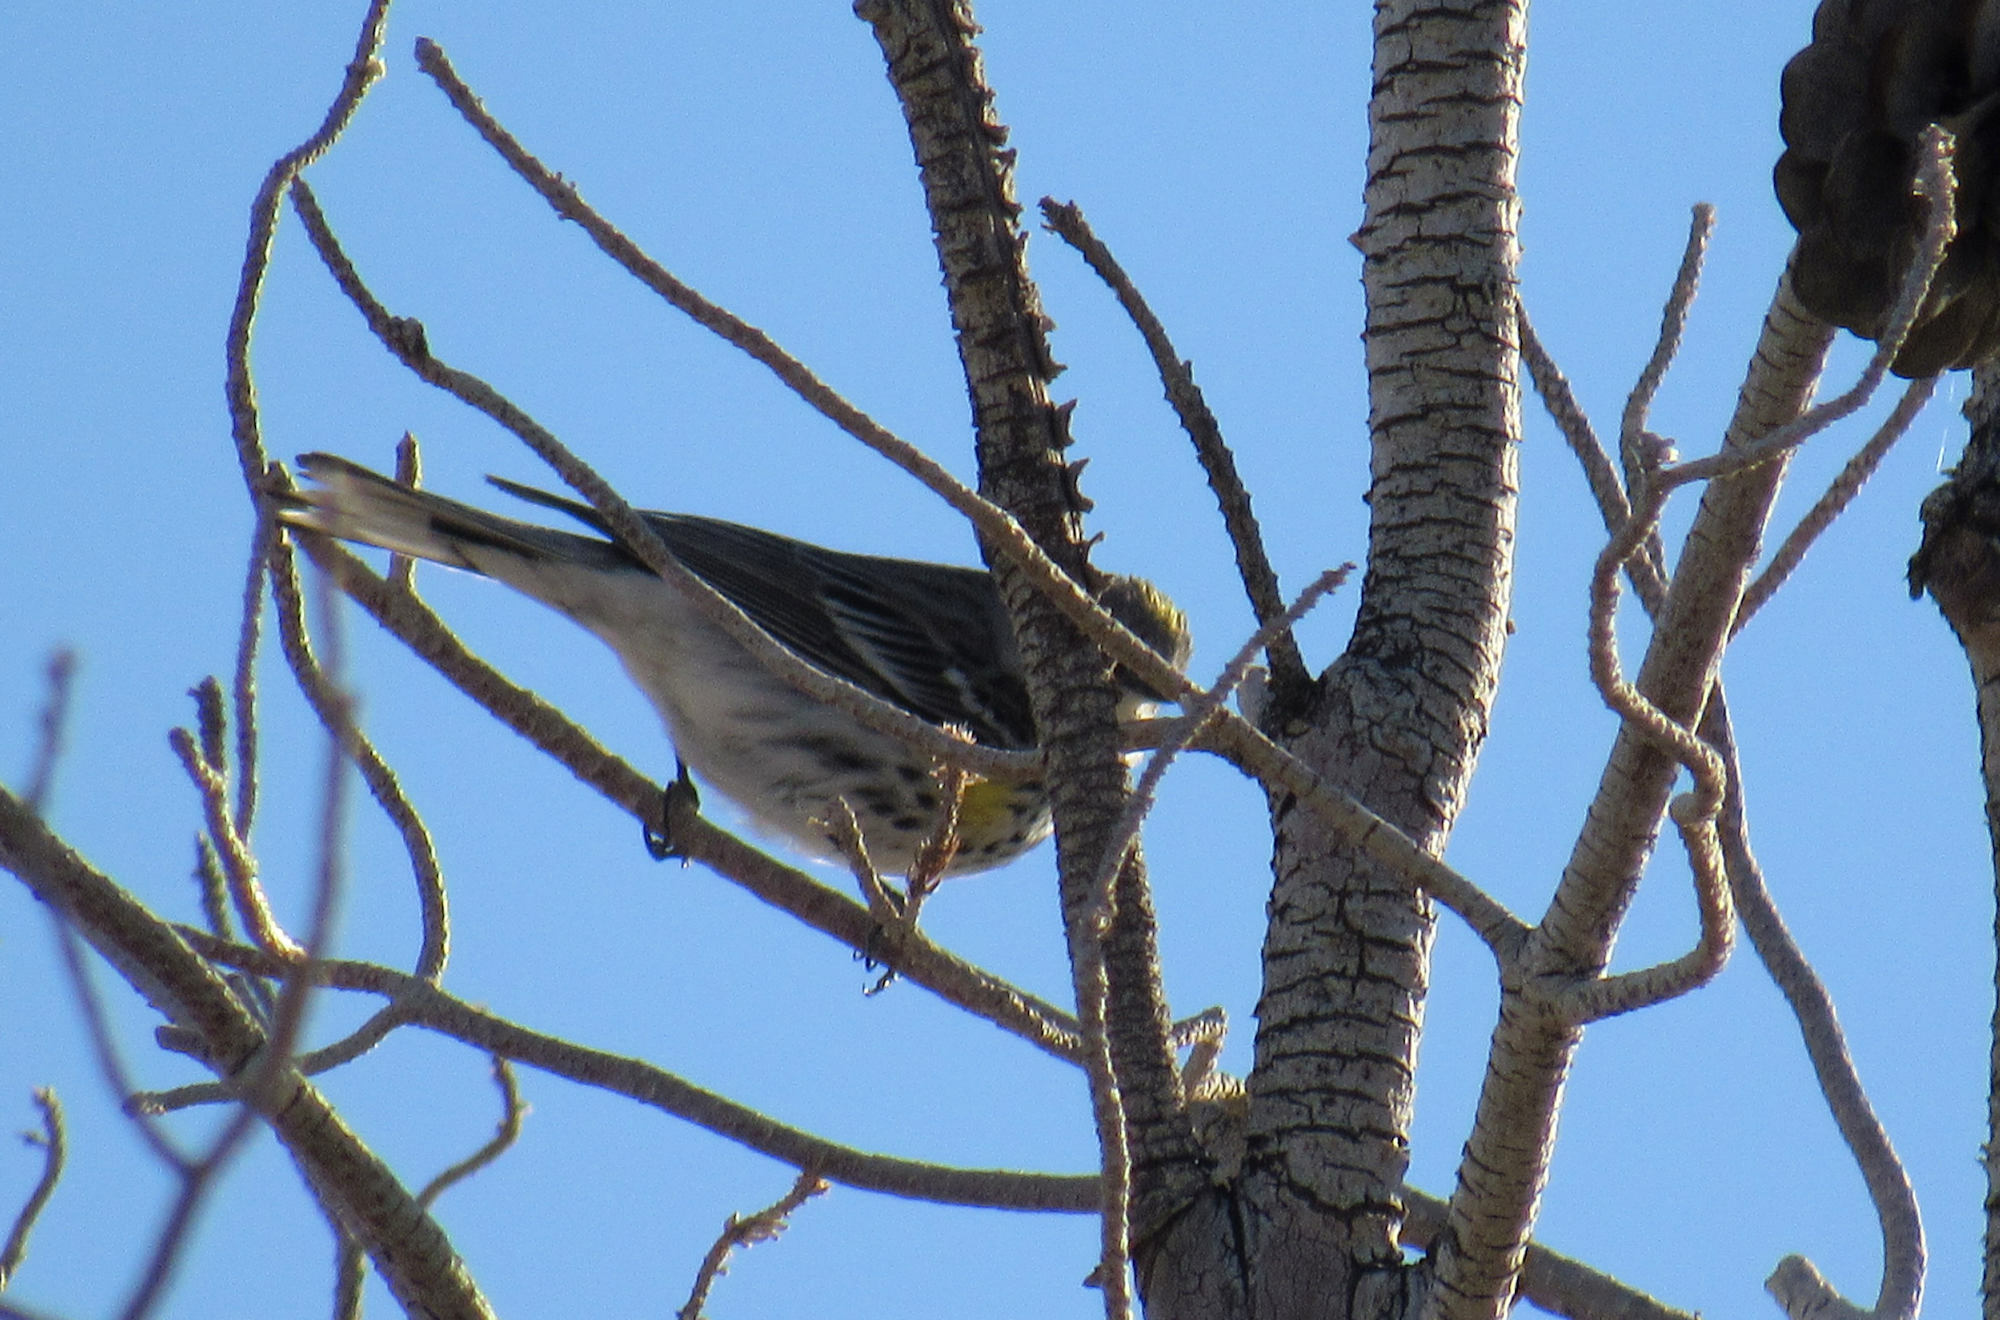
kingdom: Animalia
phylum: Chordata
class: Aves
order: Passeriformes
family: Parulidae
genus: Setophaga
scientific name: Setophaga coronata
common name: Myrtle warbler
